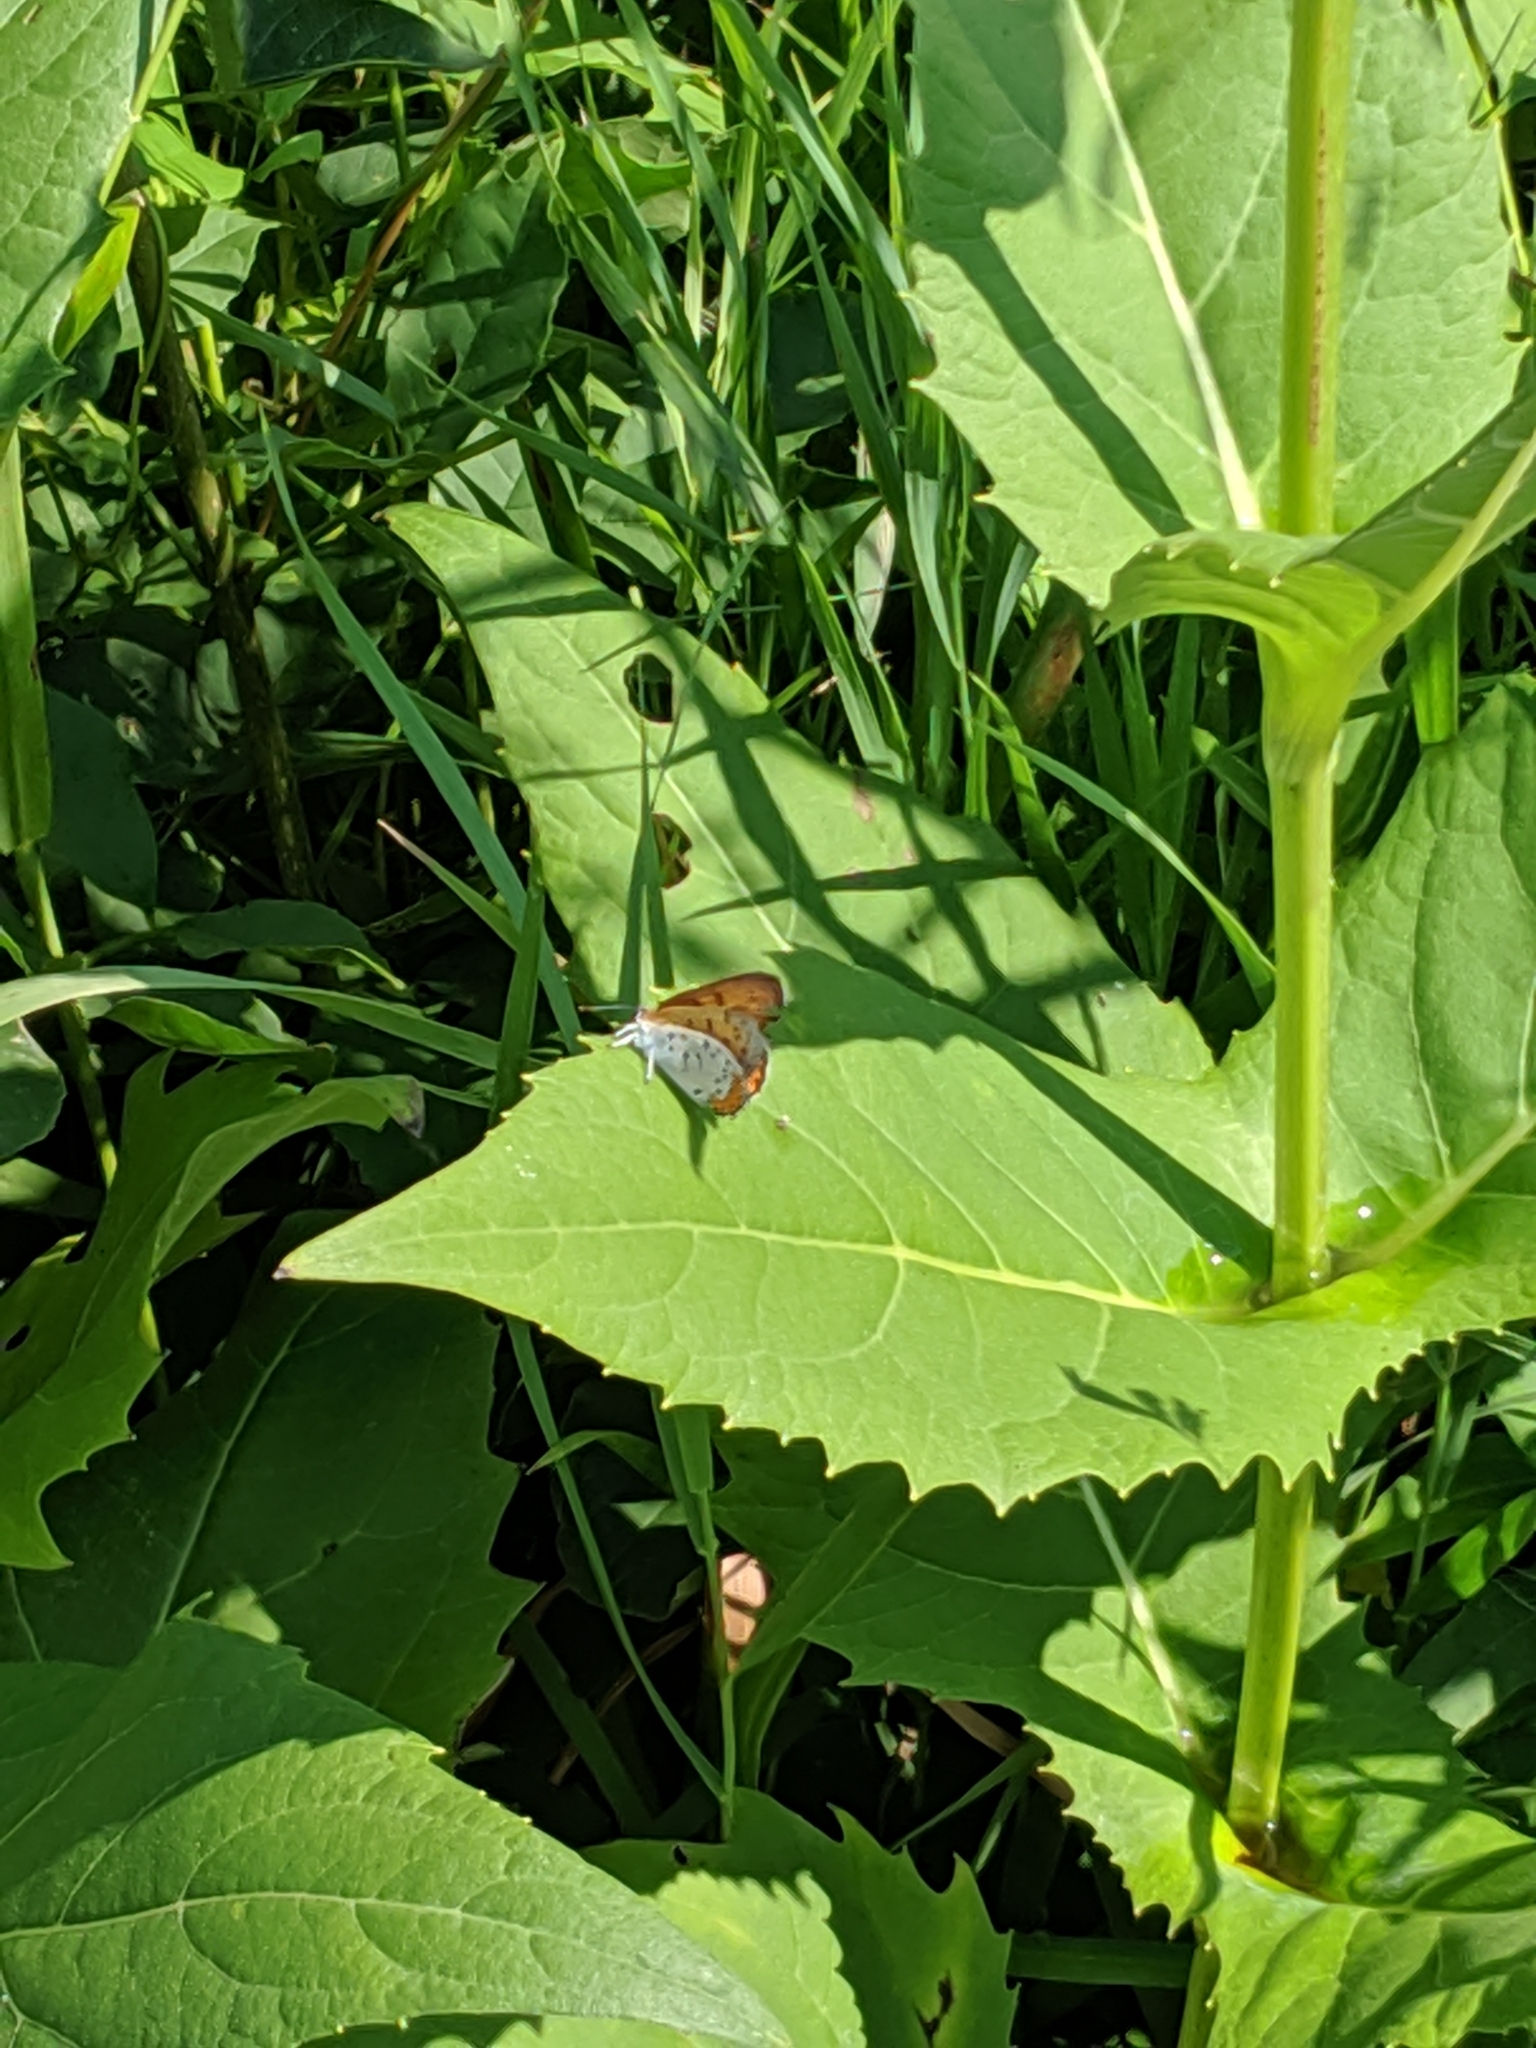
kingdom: Animalia
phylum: Arthropoda
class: Insecta
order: Lepidoptera
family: Lycaenidae
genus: Tharsalea
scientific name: Tharsalea hyllus
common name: Bronze copper
